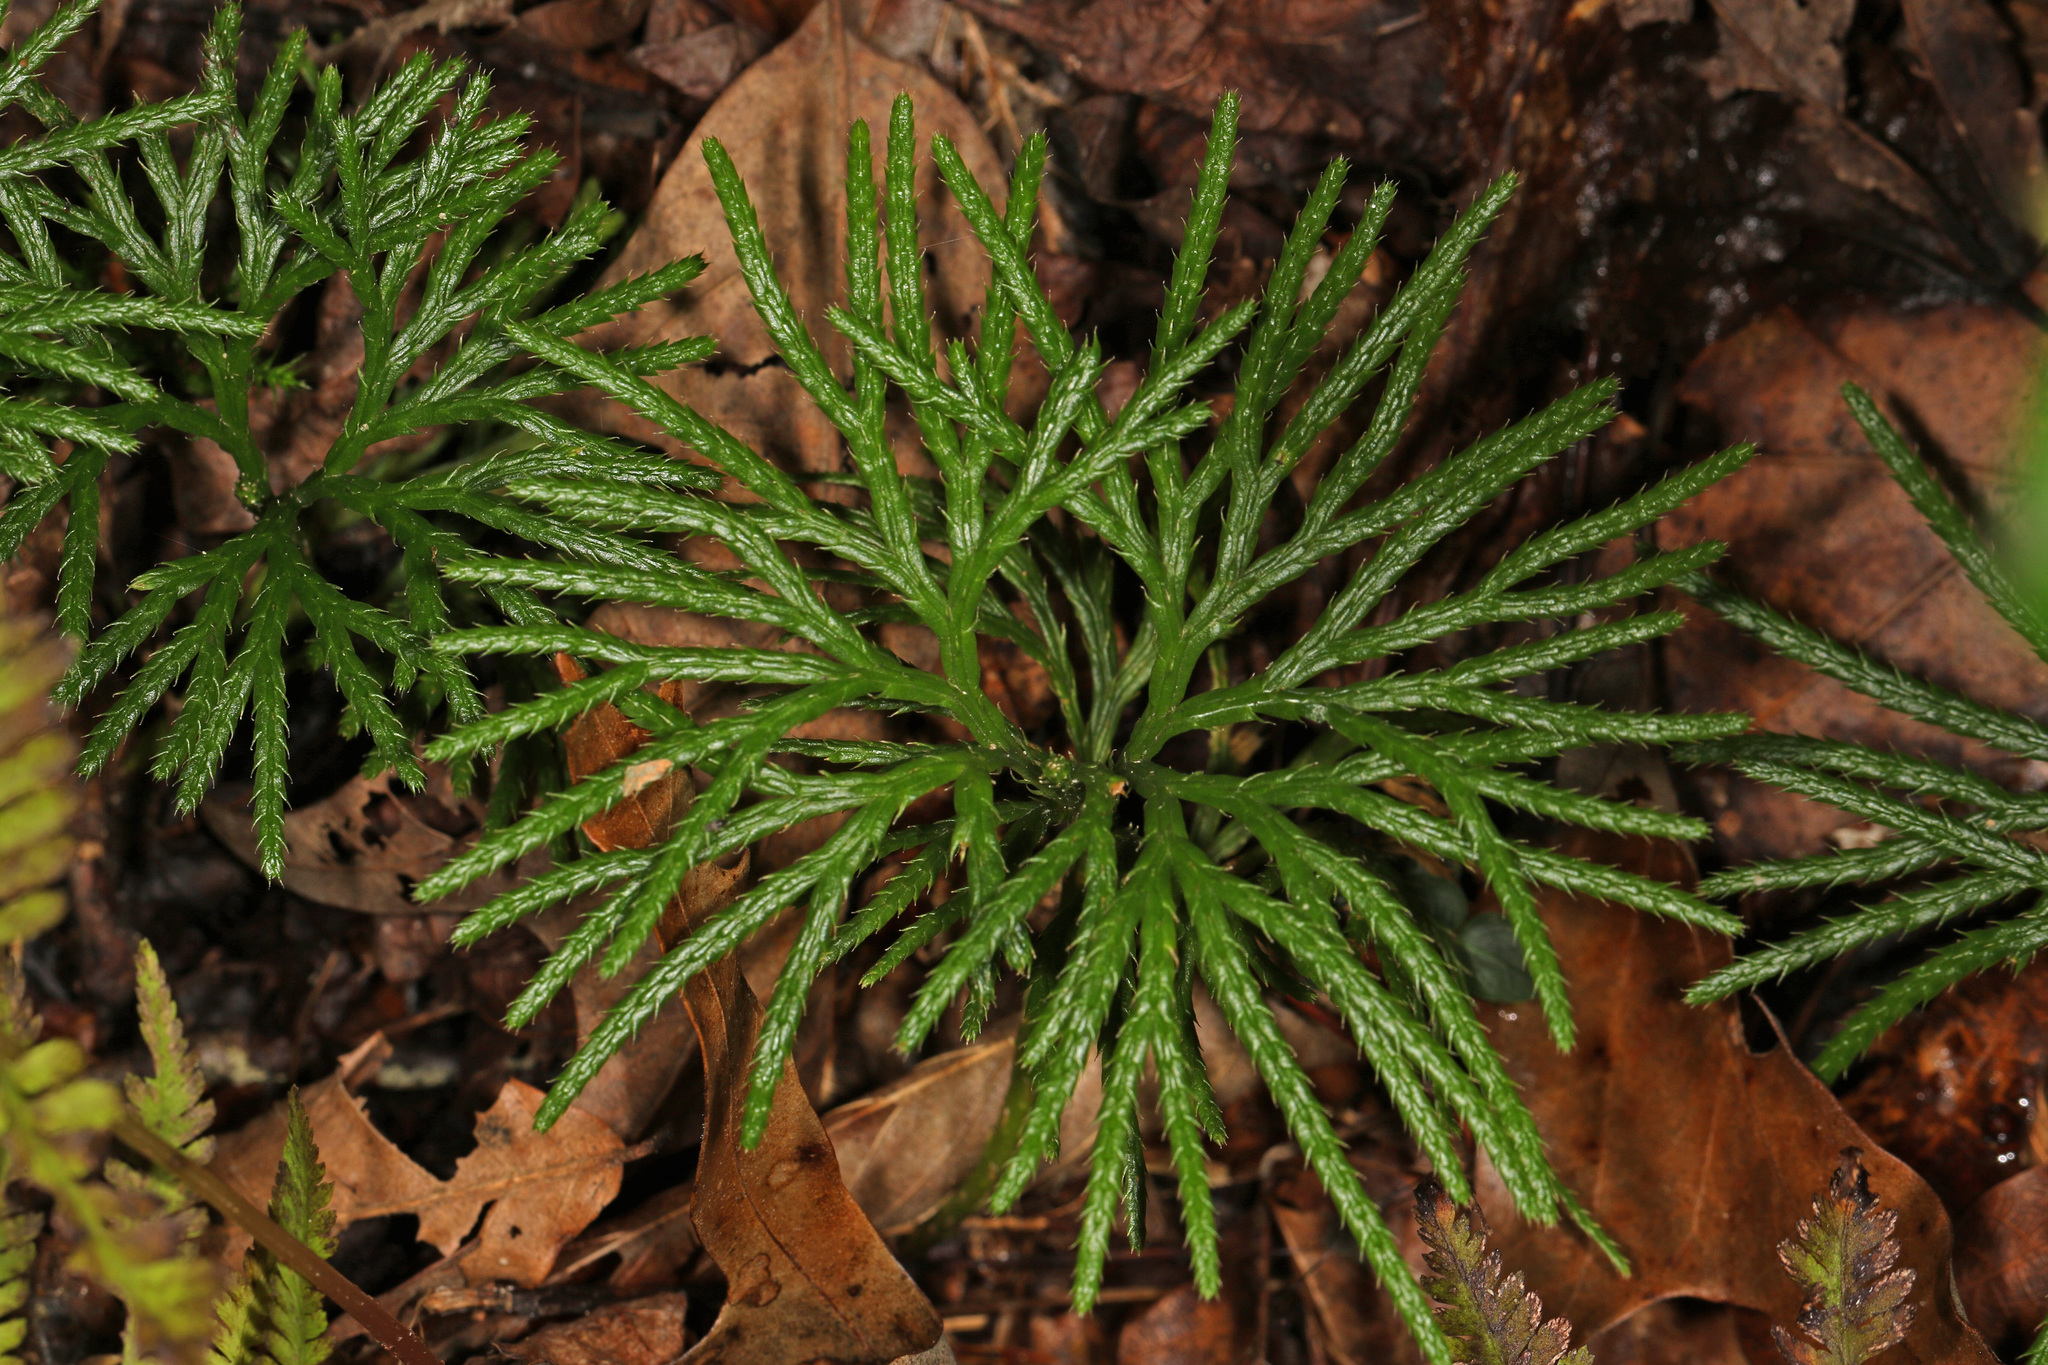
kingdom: Plantae
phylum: Tracheophyta
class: Lycopodiopsida
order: Lycopodiales
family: Lycopodiaceae
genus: Diphasiastrum
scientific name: Diphasiastrum digitatum
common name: Southern running-pine
